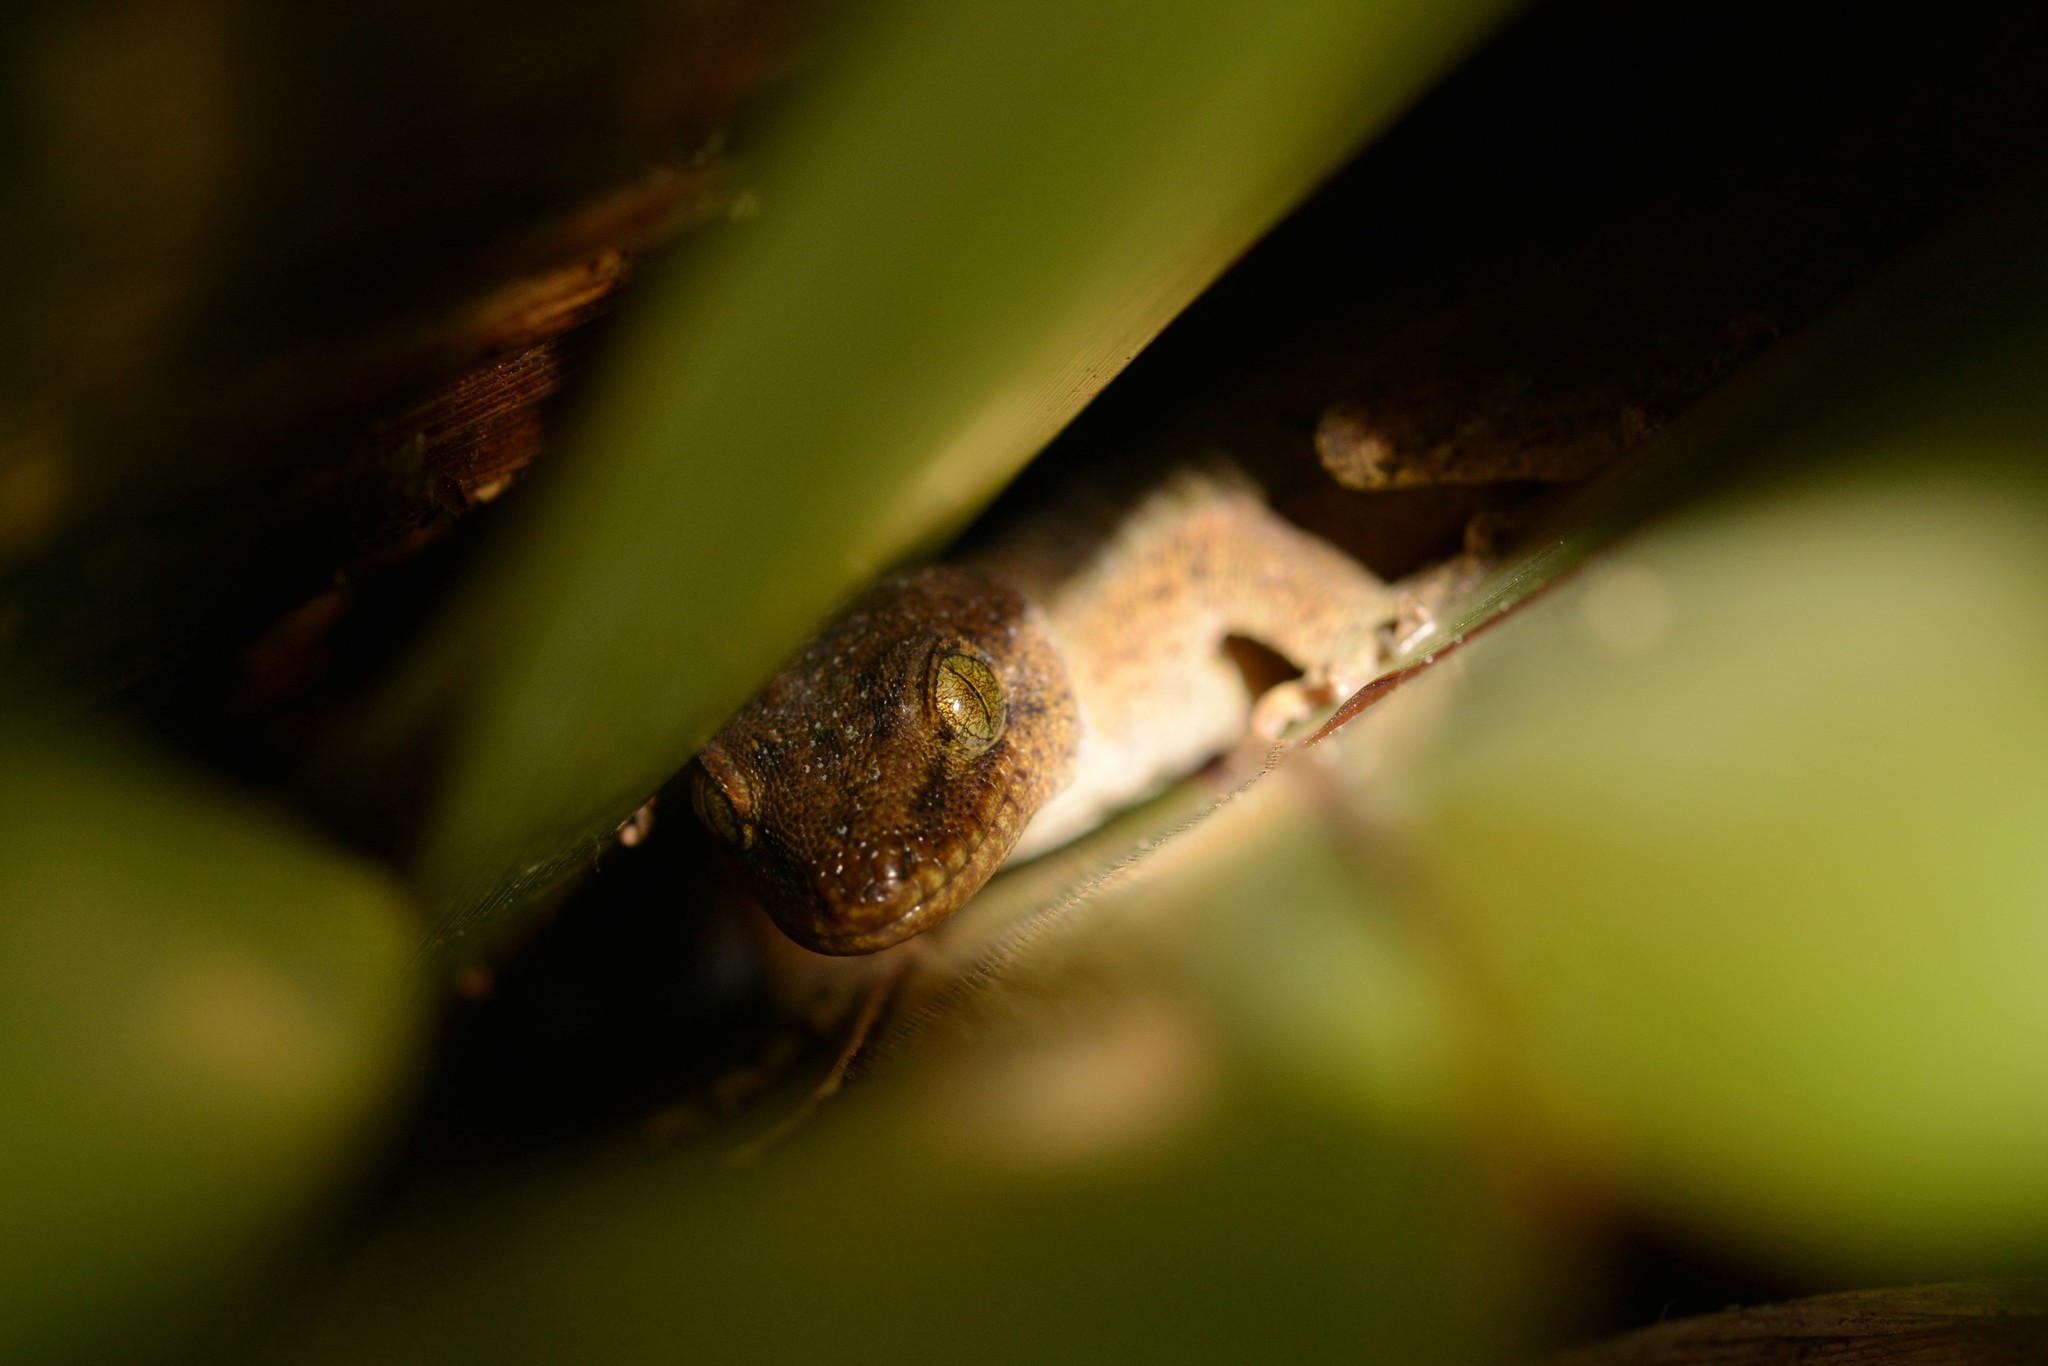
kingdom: Animalia
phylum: Chordata
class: Squamata
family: Diplodactylidae
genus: Woodworthia
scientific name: Woodworthia maculata
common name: Raukawa gecko
